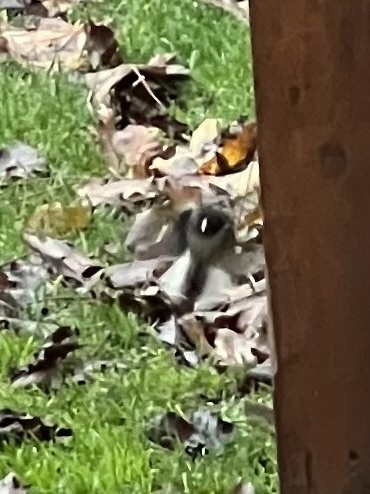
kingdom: Animalia
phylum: Chordata
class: Aves
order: Passeriformes
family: Passerellidae
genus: Junco
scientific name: Junco hyemalis
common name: Dark-eyed junco
